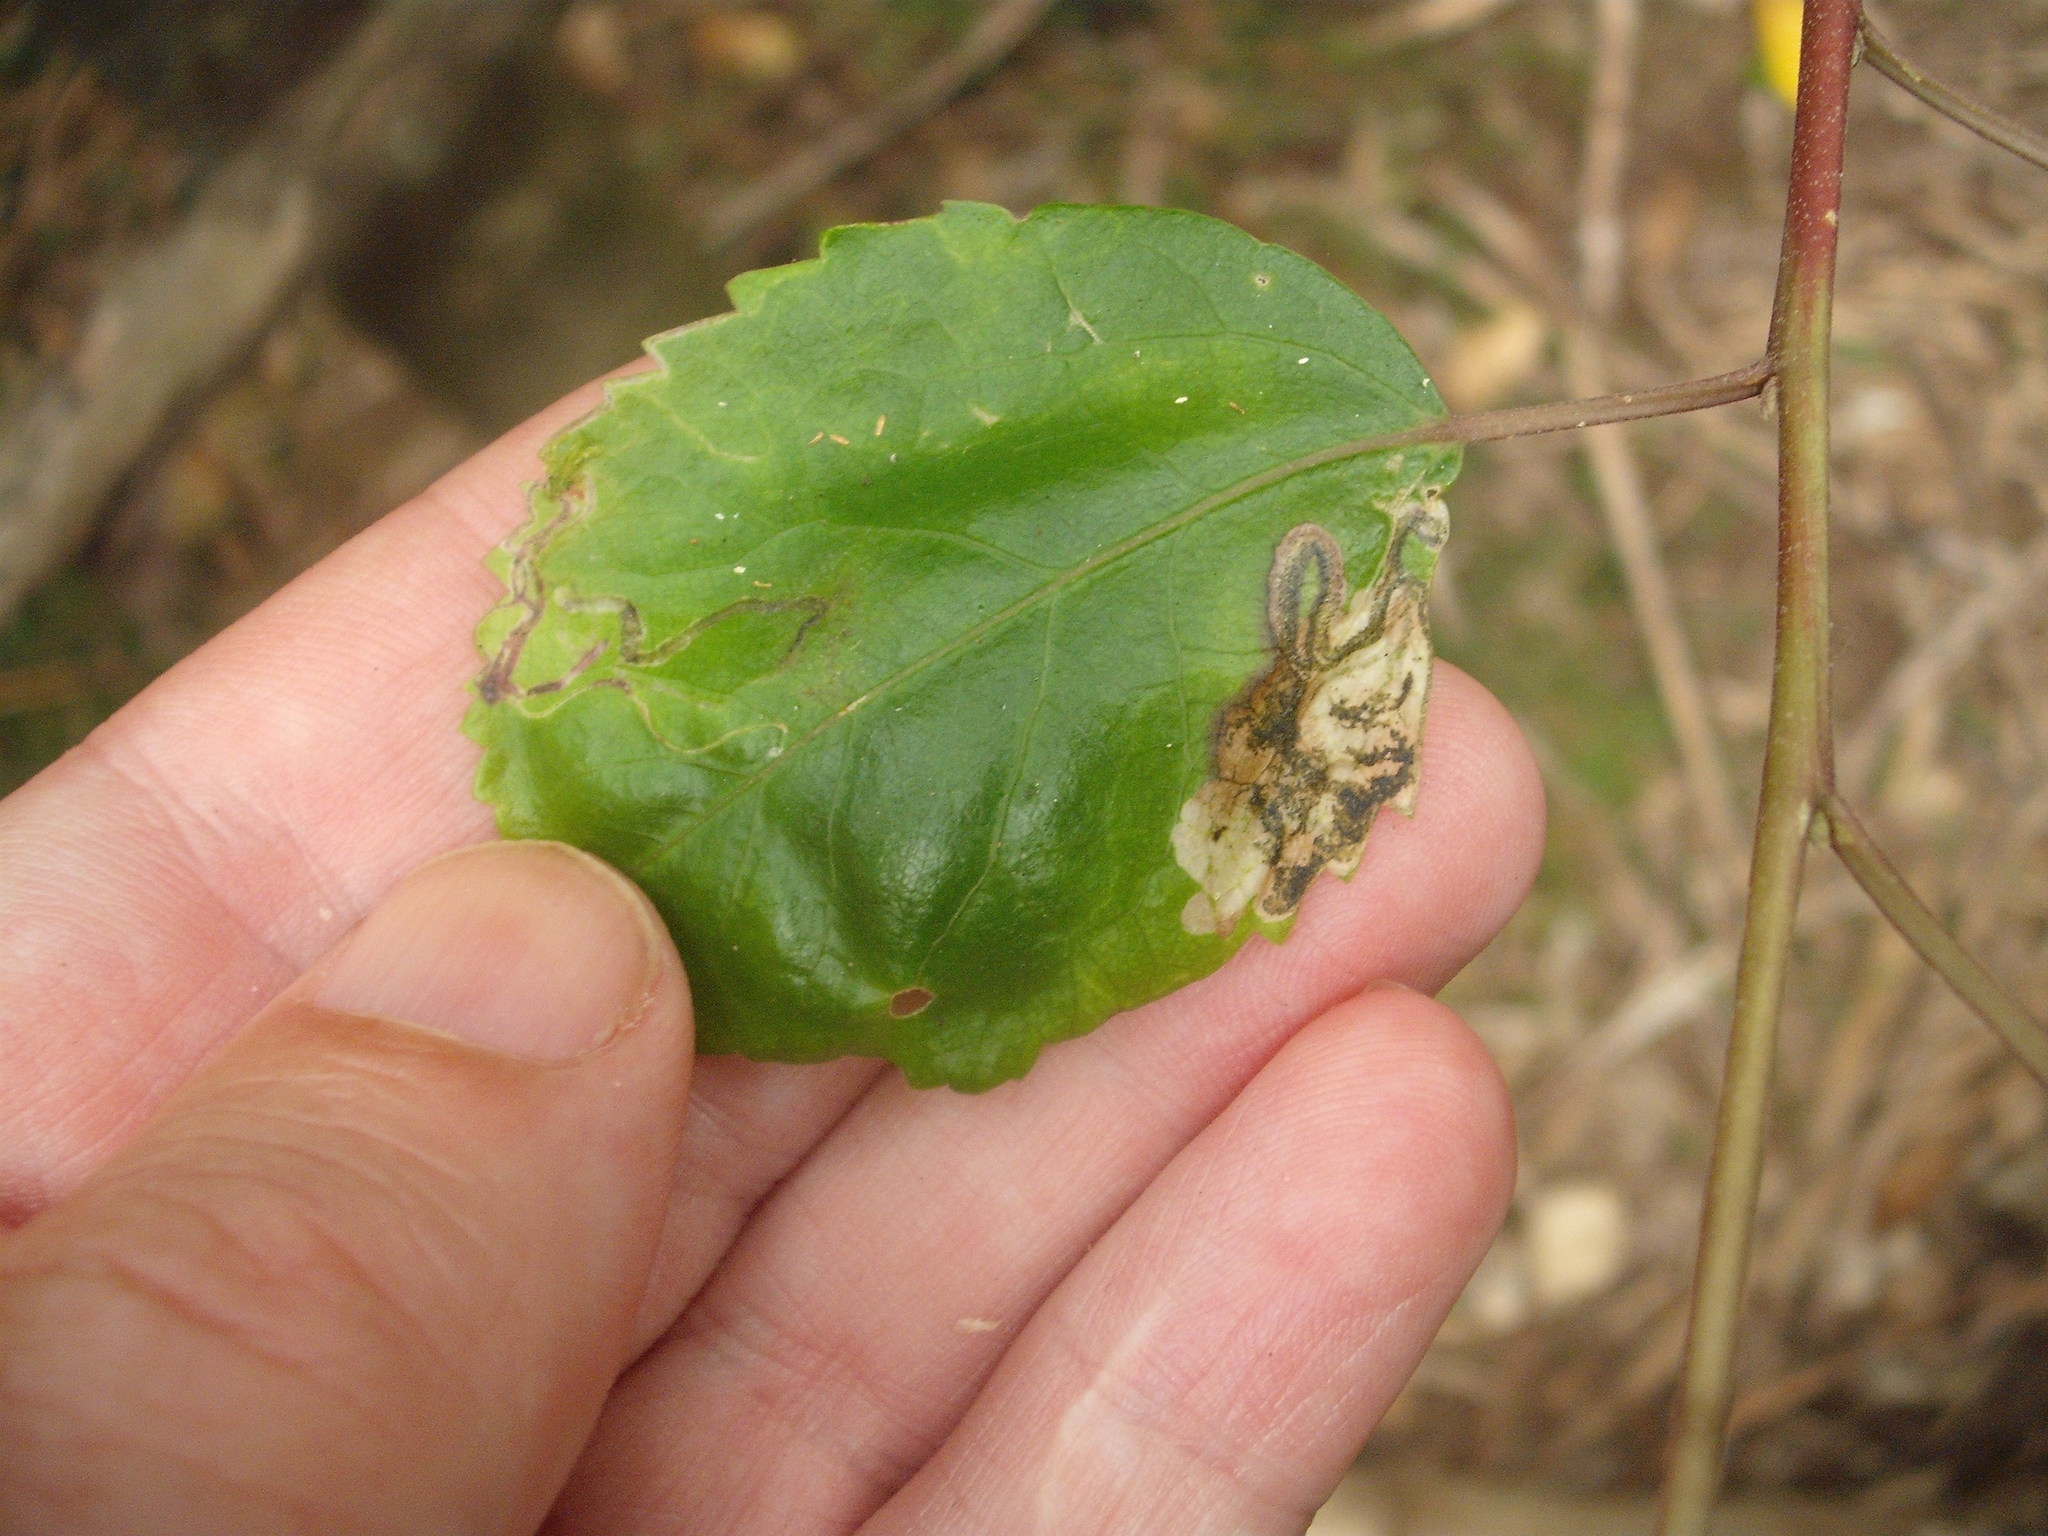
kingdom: Animalia
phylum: Arthropoda
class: Insecta
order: Lepidoptera
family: Nepticulidae
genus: Stigmella
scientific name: Stigmella hoheriae
